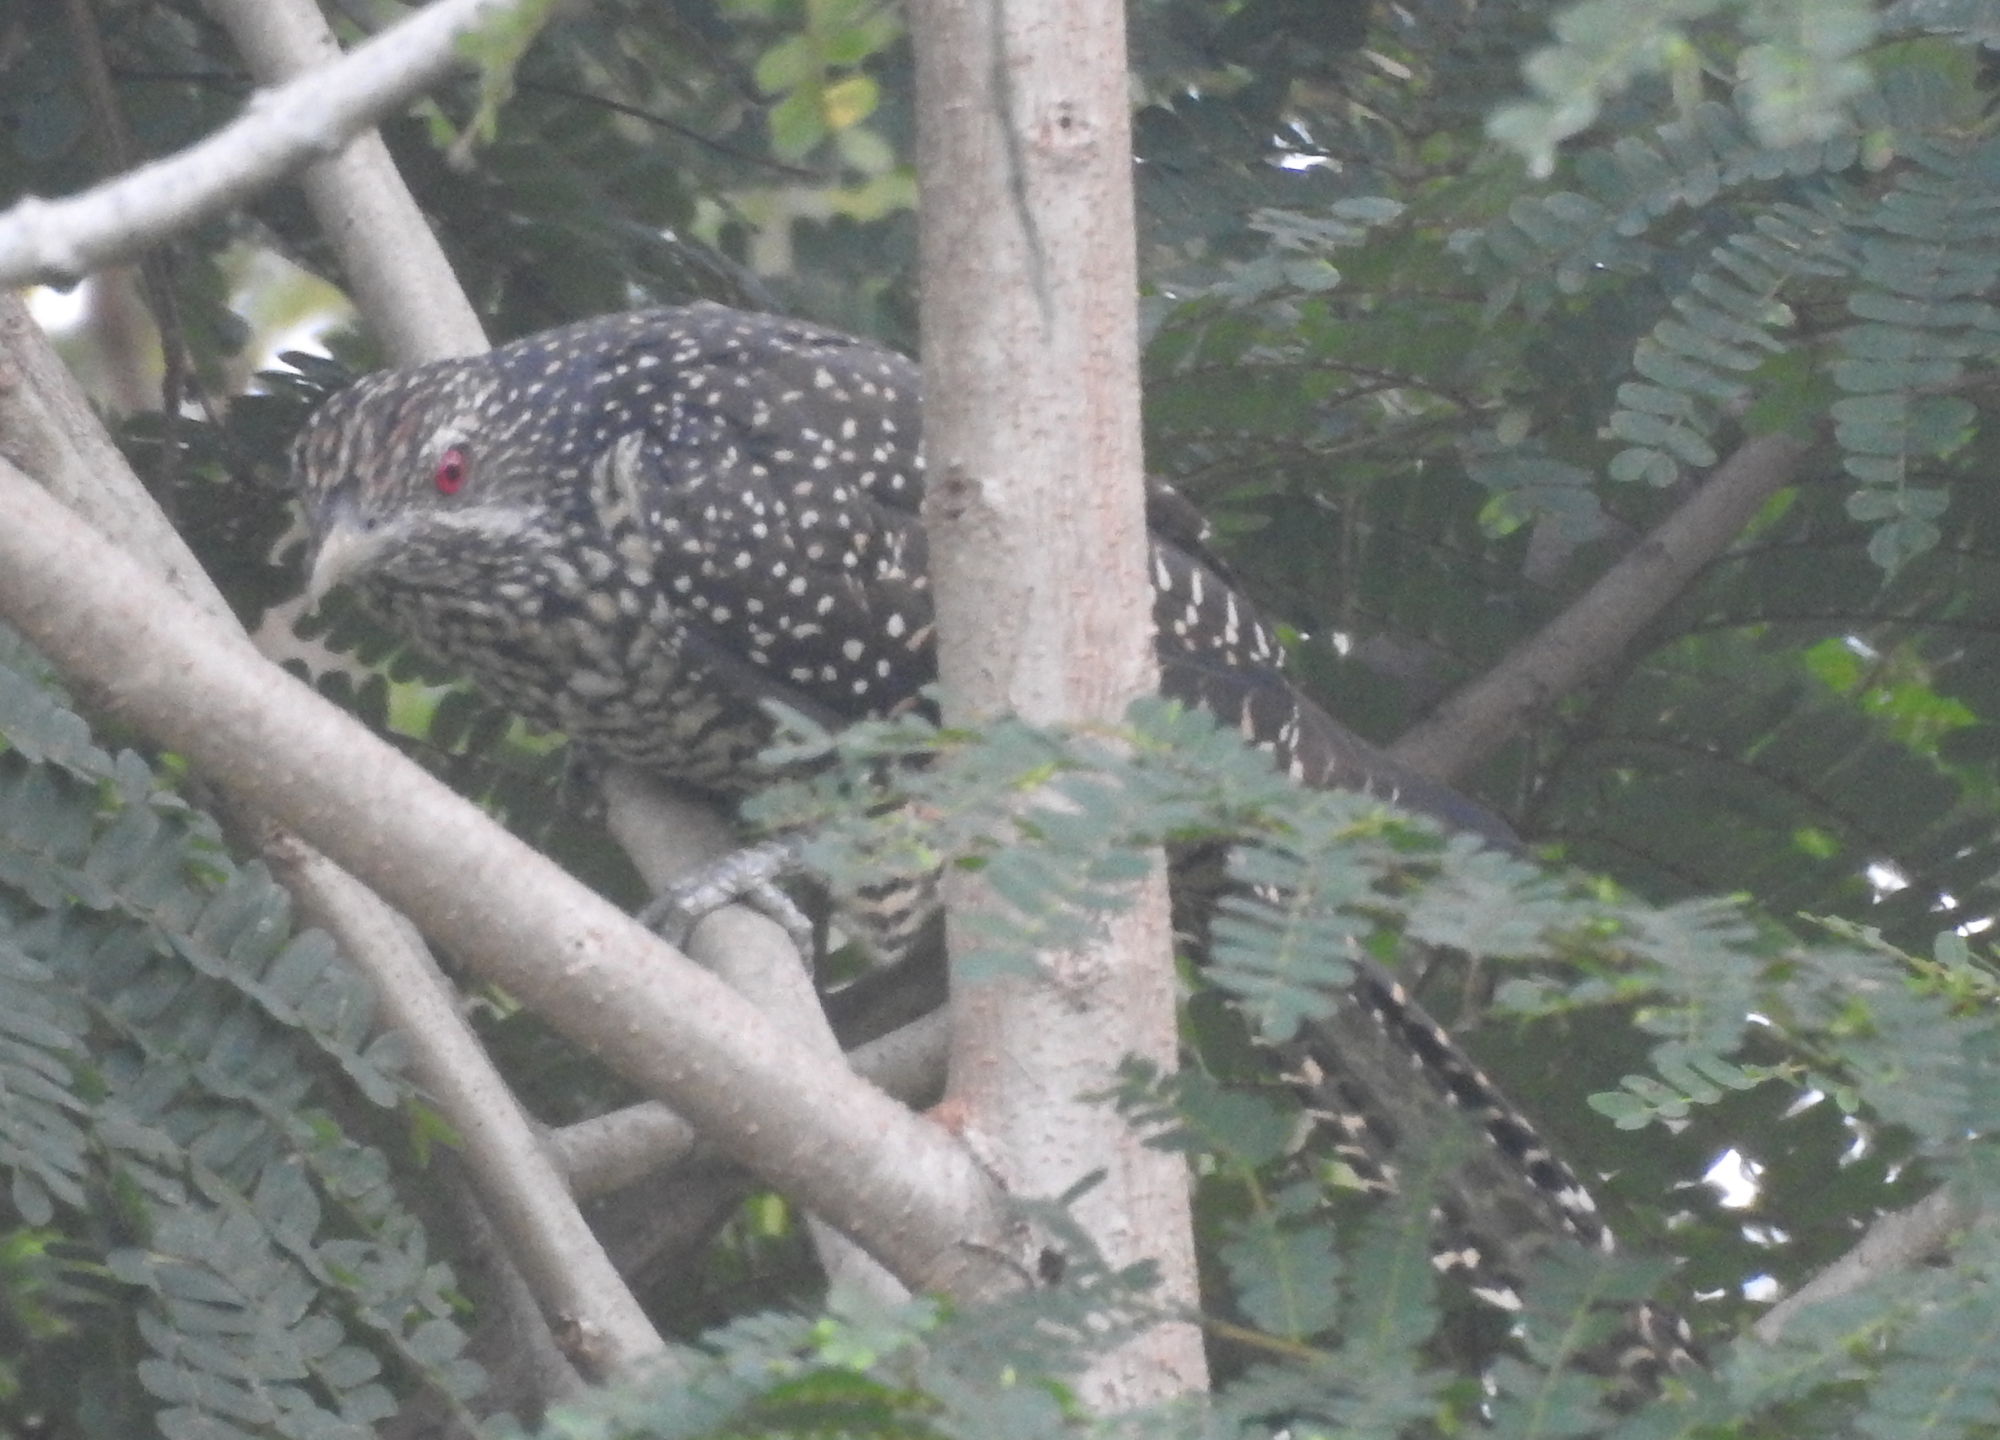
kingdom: Animalia
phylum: Chordata
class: Aves
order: Cuculiformes
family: Cuculidae
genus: Eudynamys
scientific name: Eudynamys scolopaceus
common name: Asian koel
